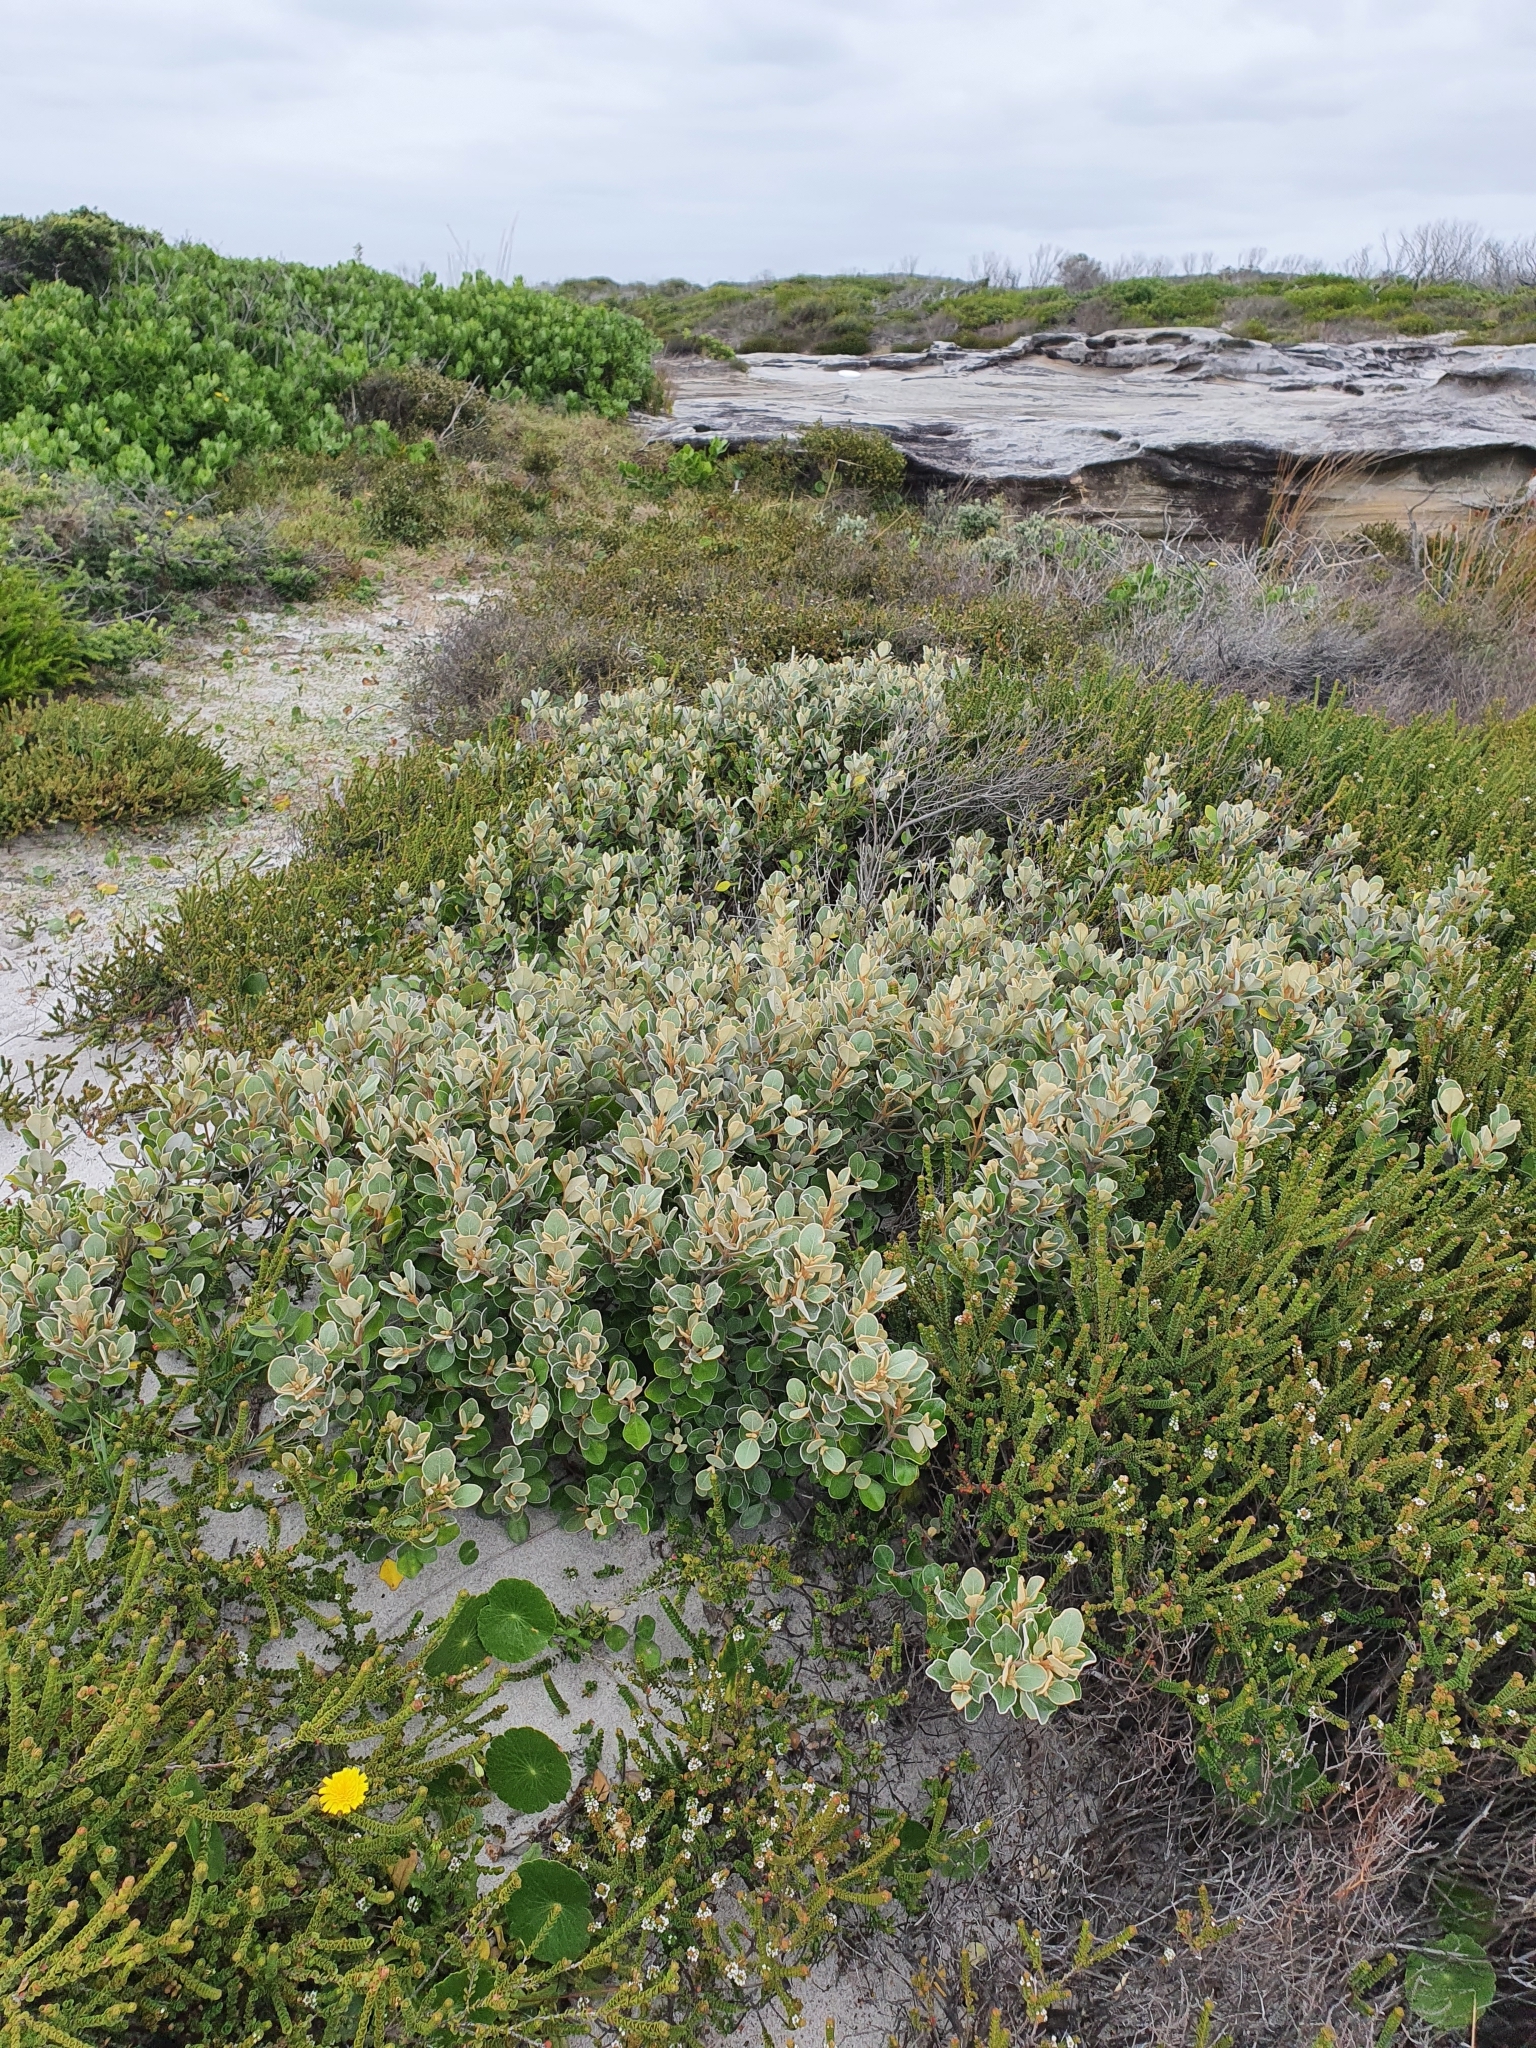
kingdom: Plantae
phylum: Tracheophyta
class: Magnoliopsida
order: Sapindales
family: Rutaceae
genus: Correa
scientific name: Correa alba
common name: White correa
